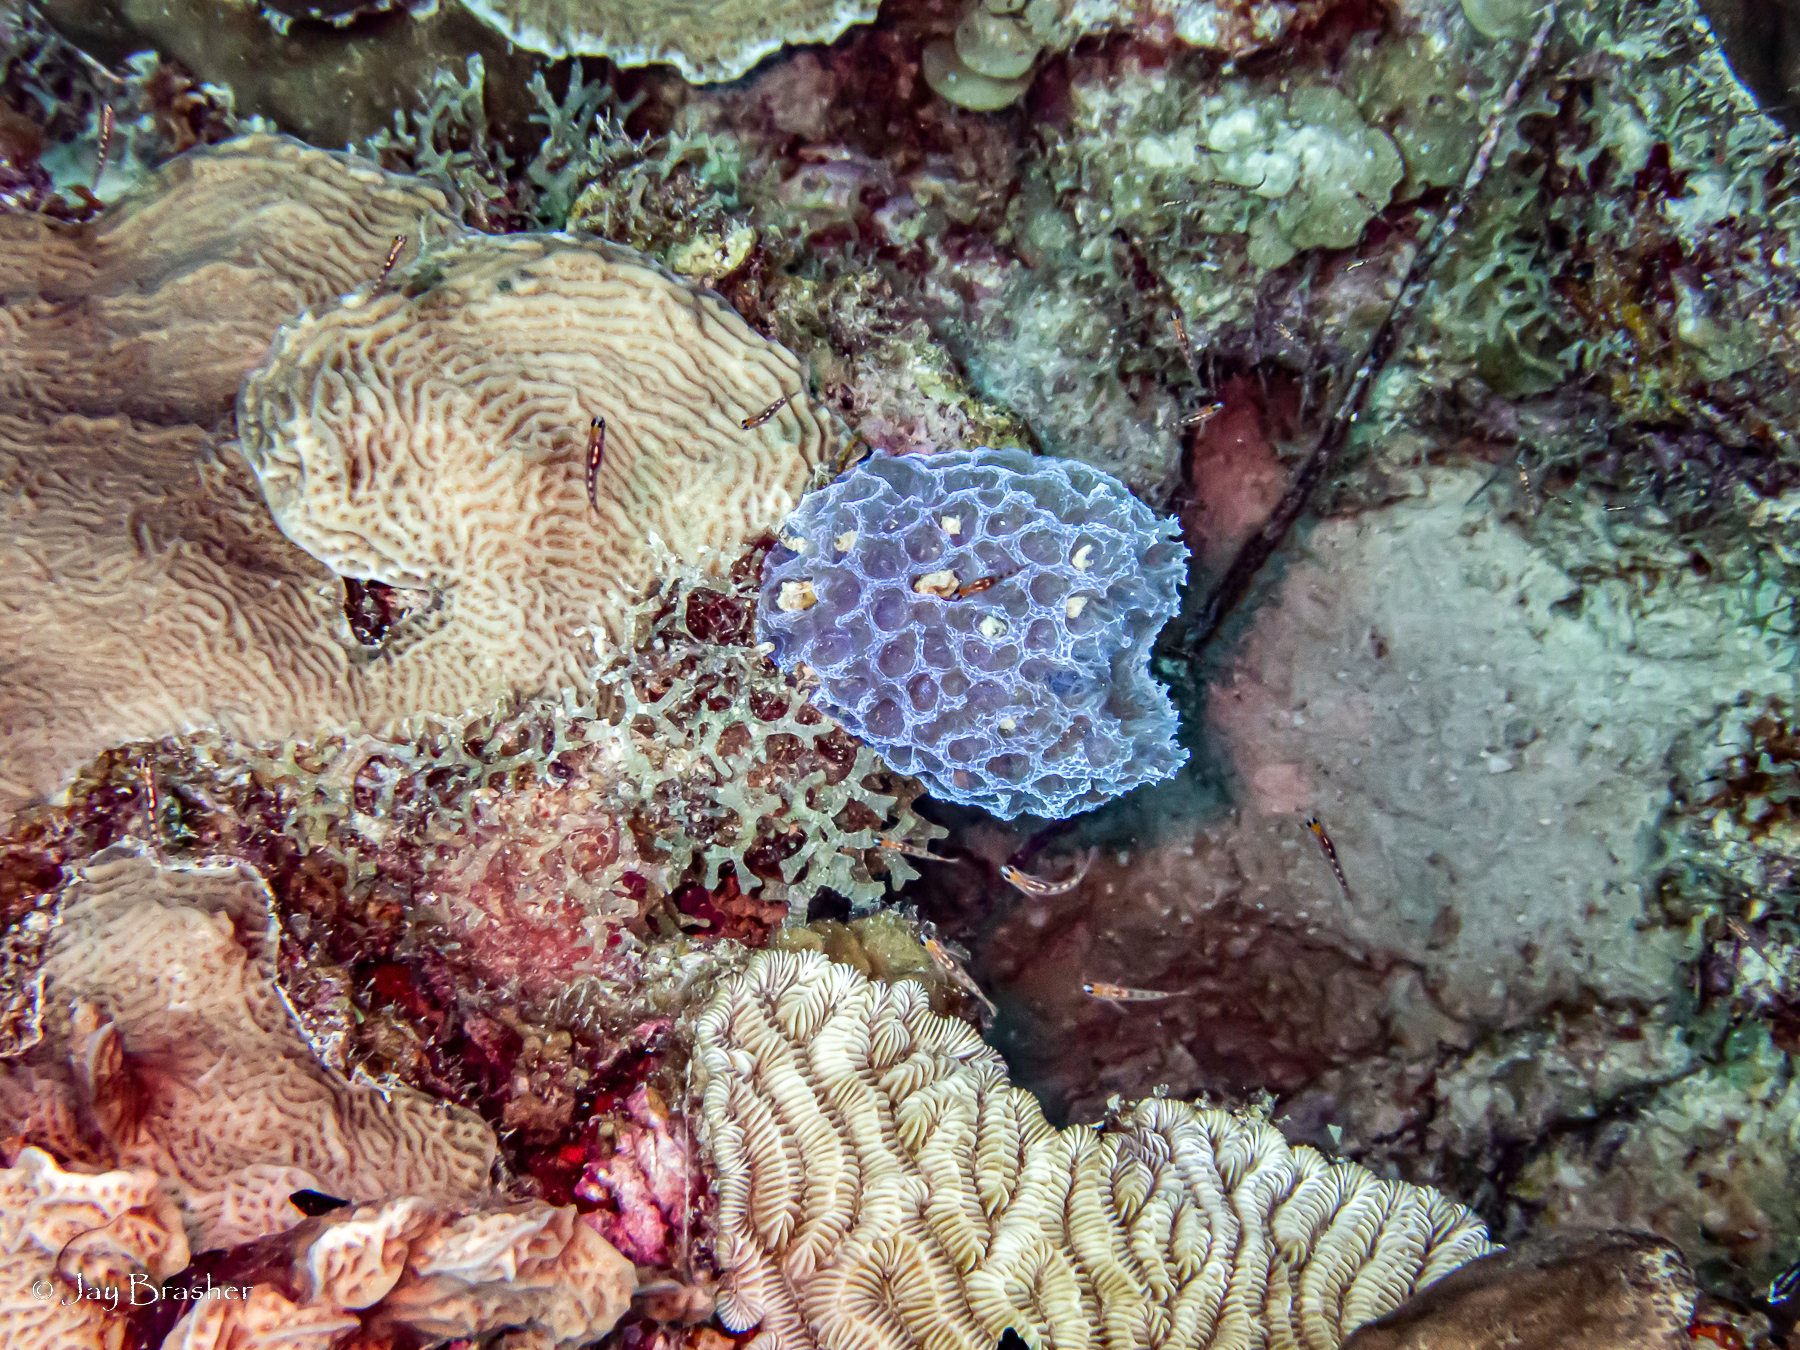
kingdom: Animalia
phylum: Porifera
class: Demospongiae
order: Haplosclerida
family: Callyspongiidae
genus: Callyspongia
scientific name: Callyspongia plicifera
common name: Azure vase sponge
